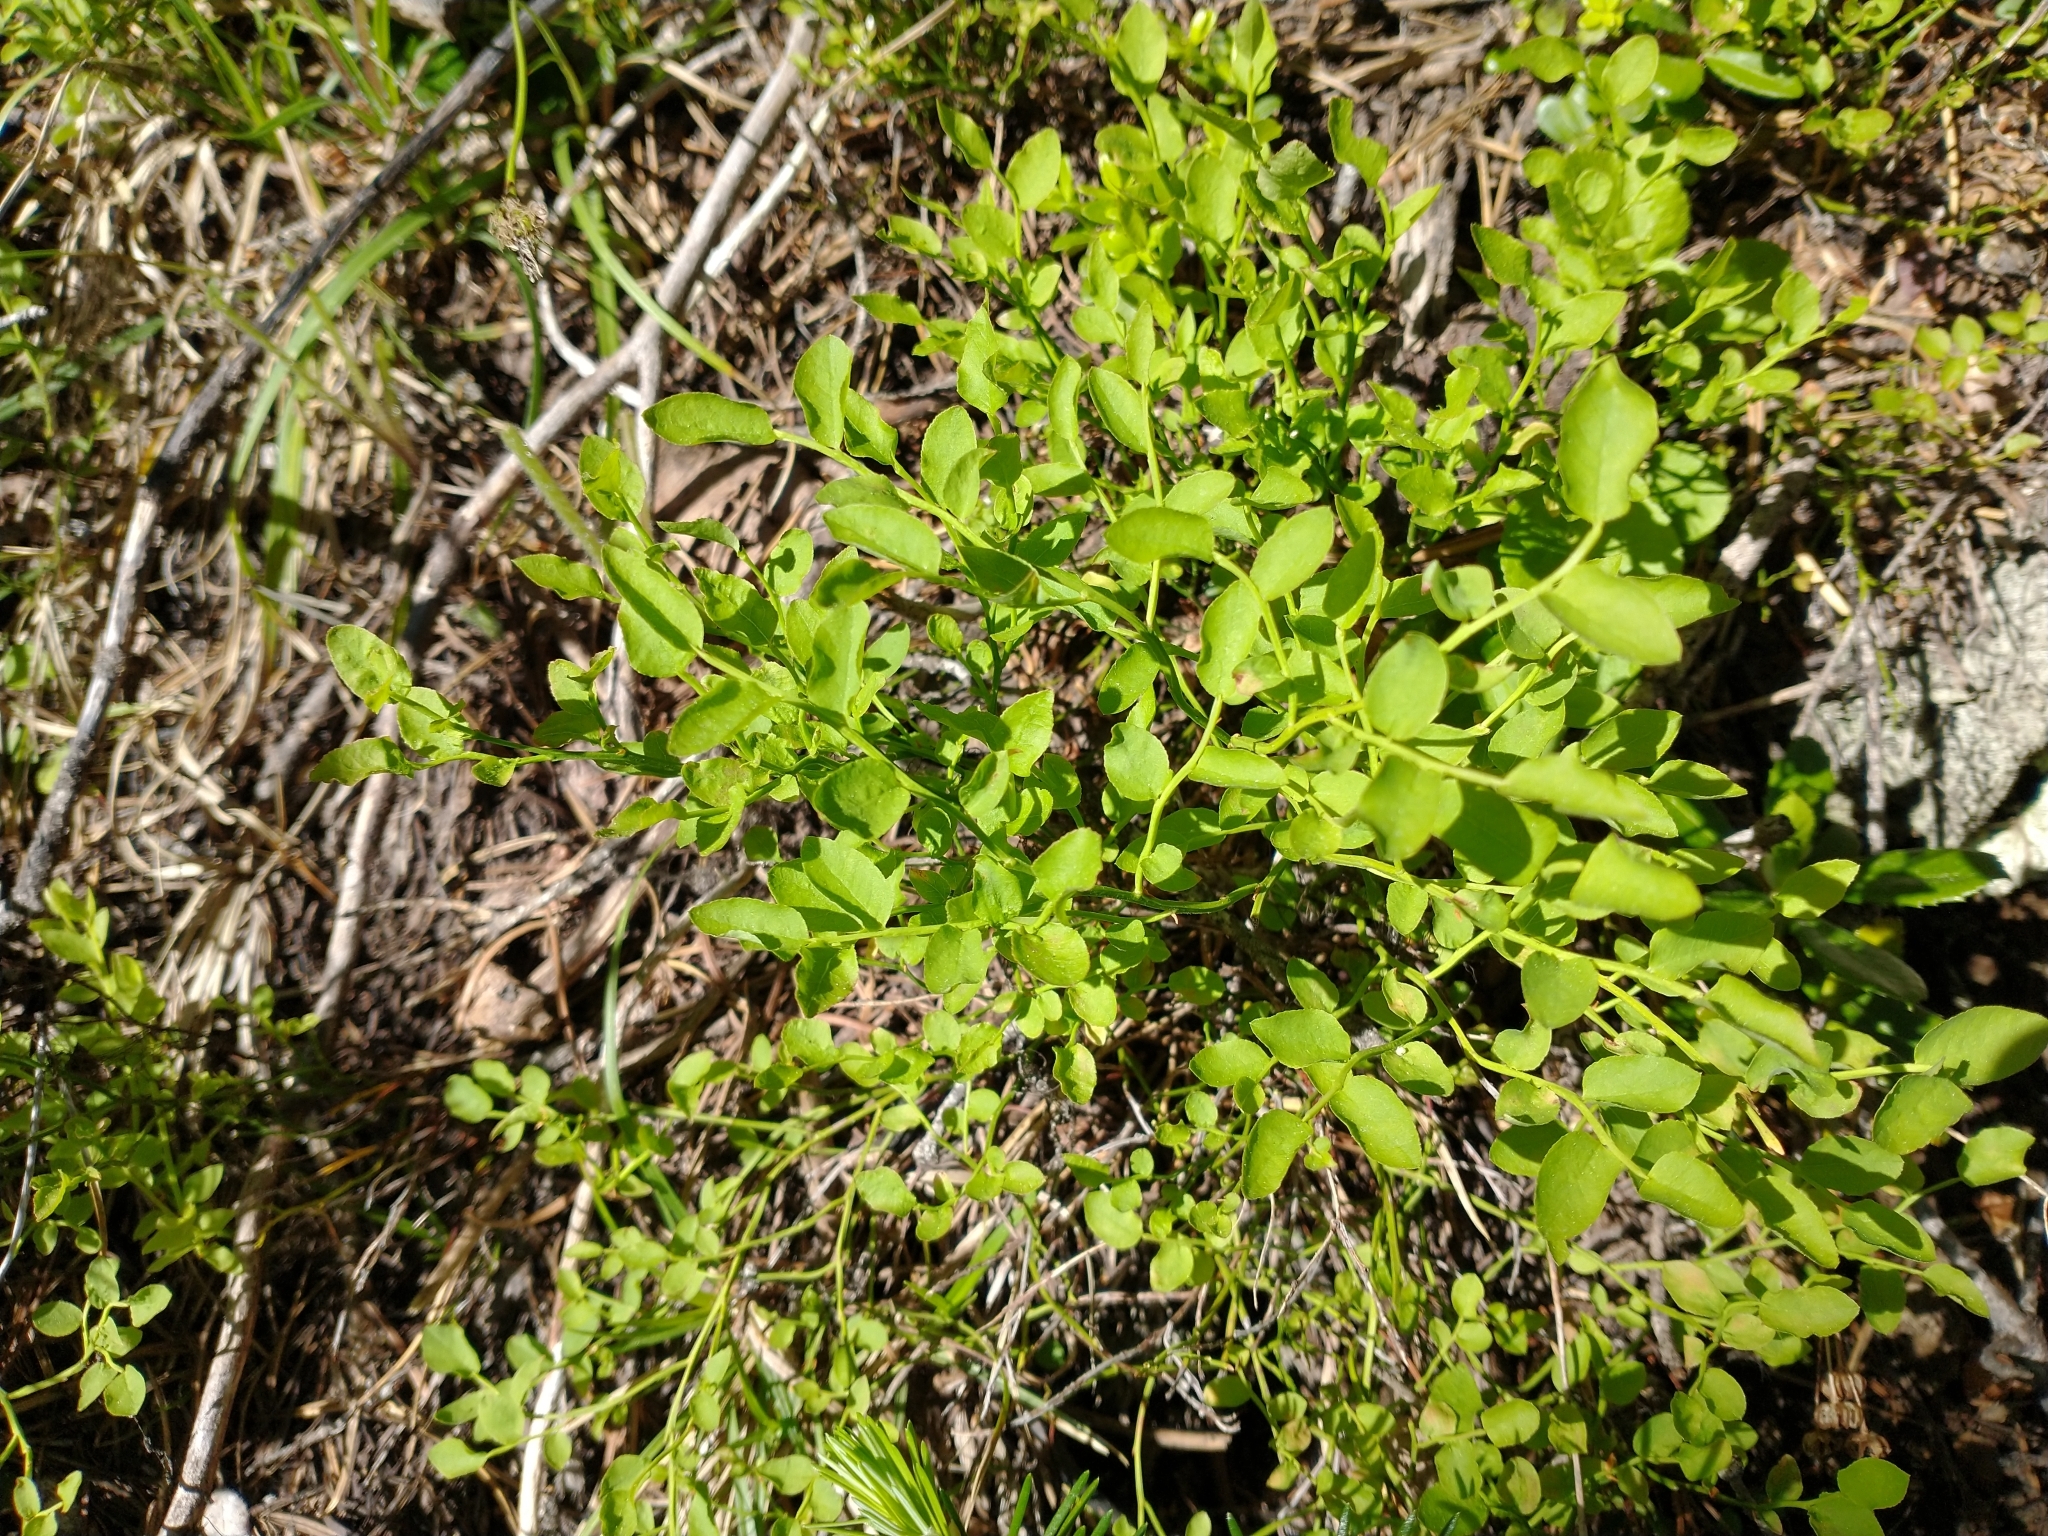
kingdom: Plantae
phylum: Tracheophyta
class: Magnoliopsida
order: Ericales
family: Ericaceae
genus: Vaccinium
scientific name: Vaccinium scoparium
